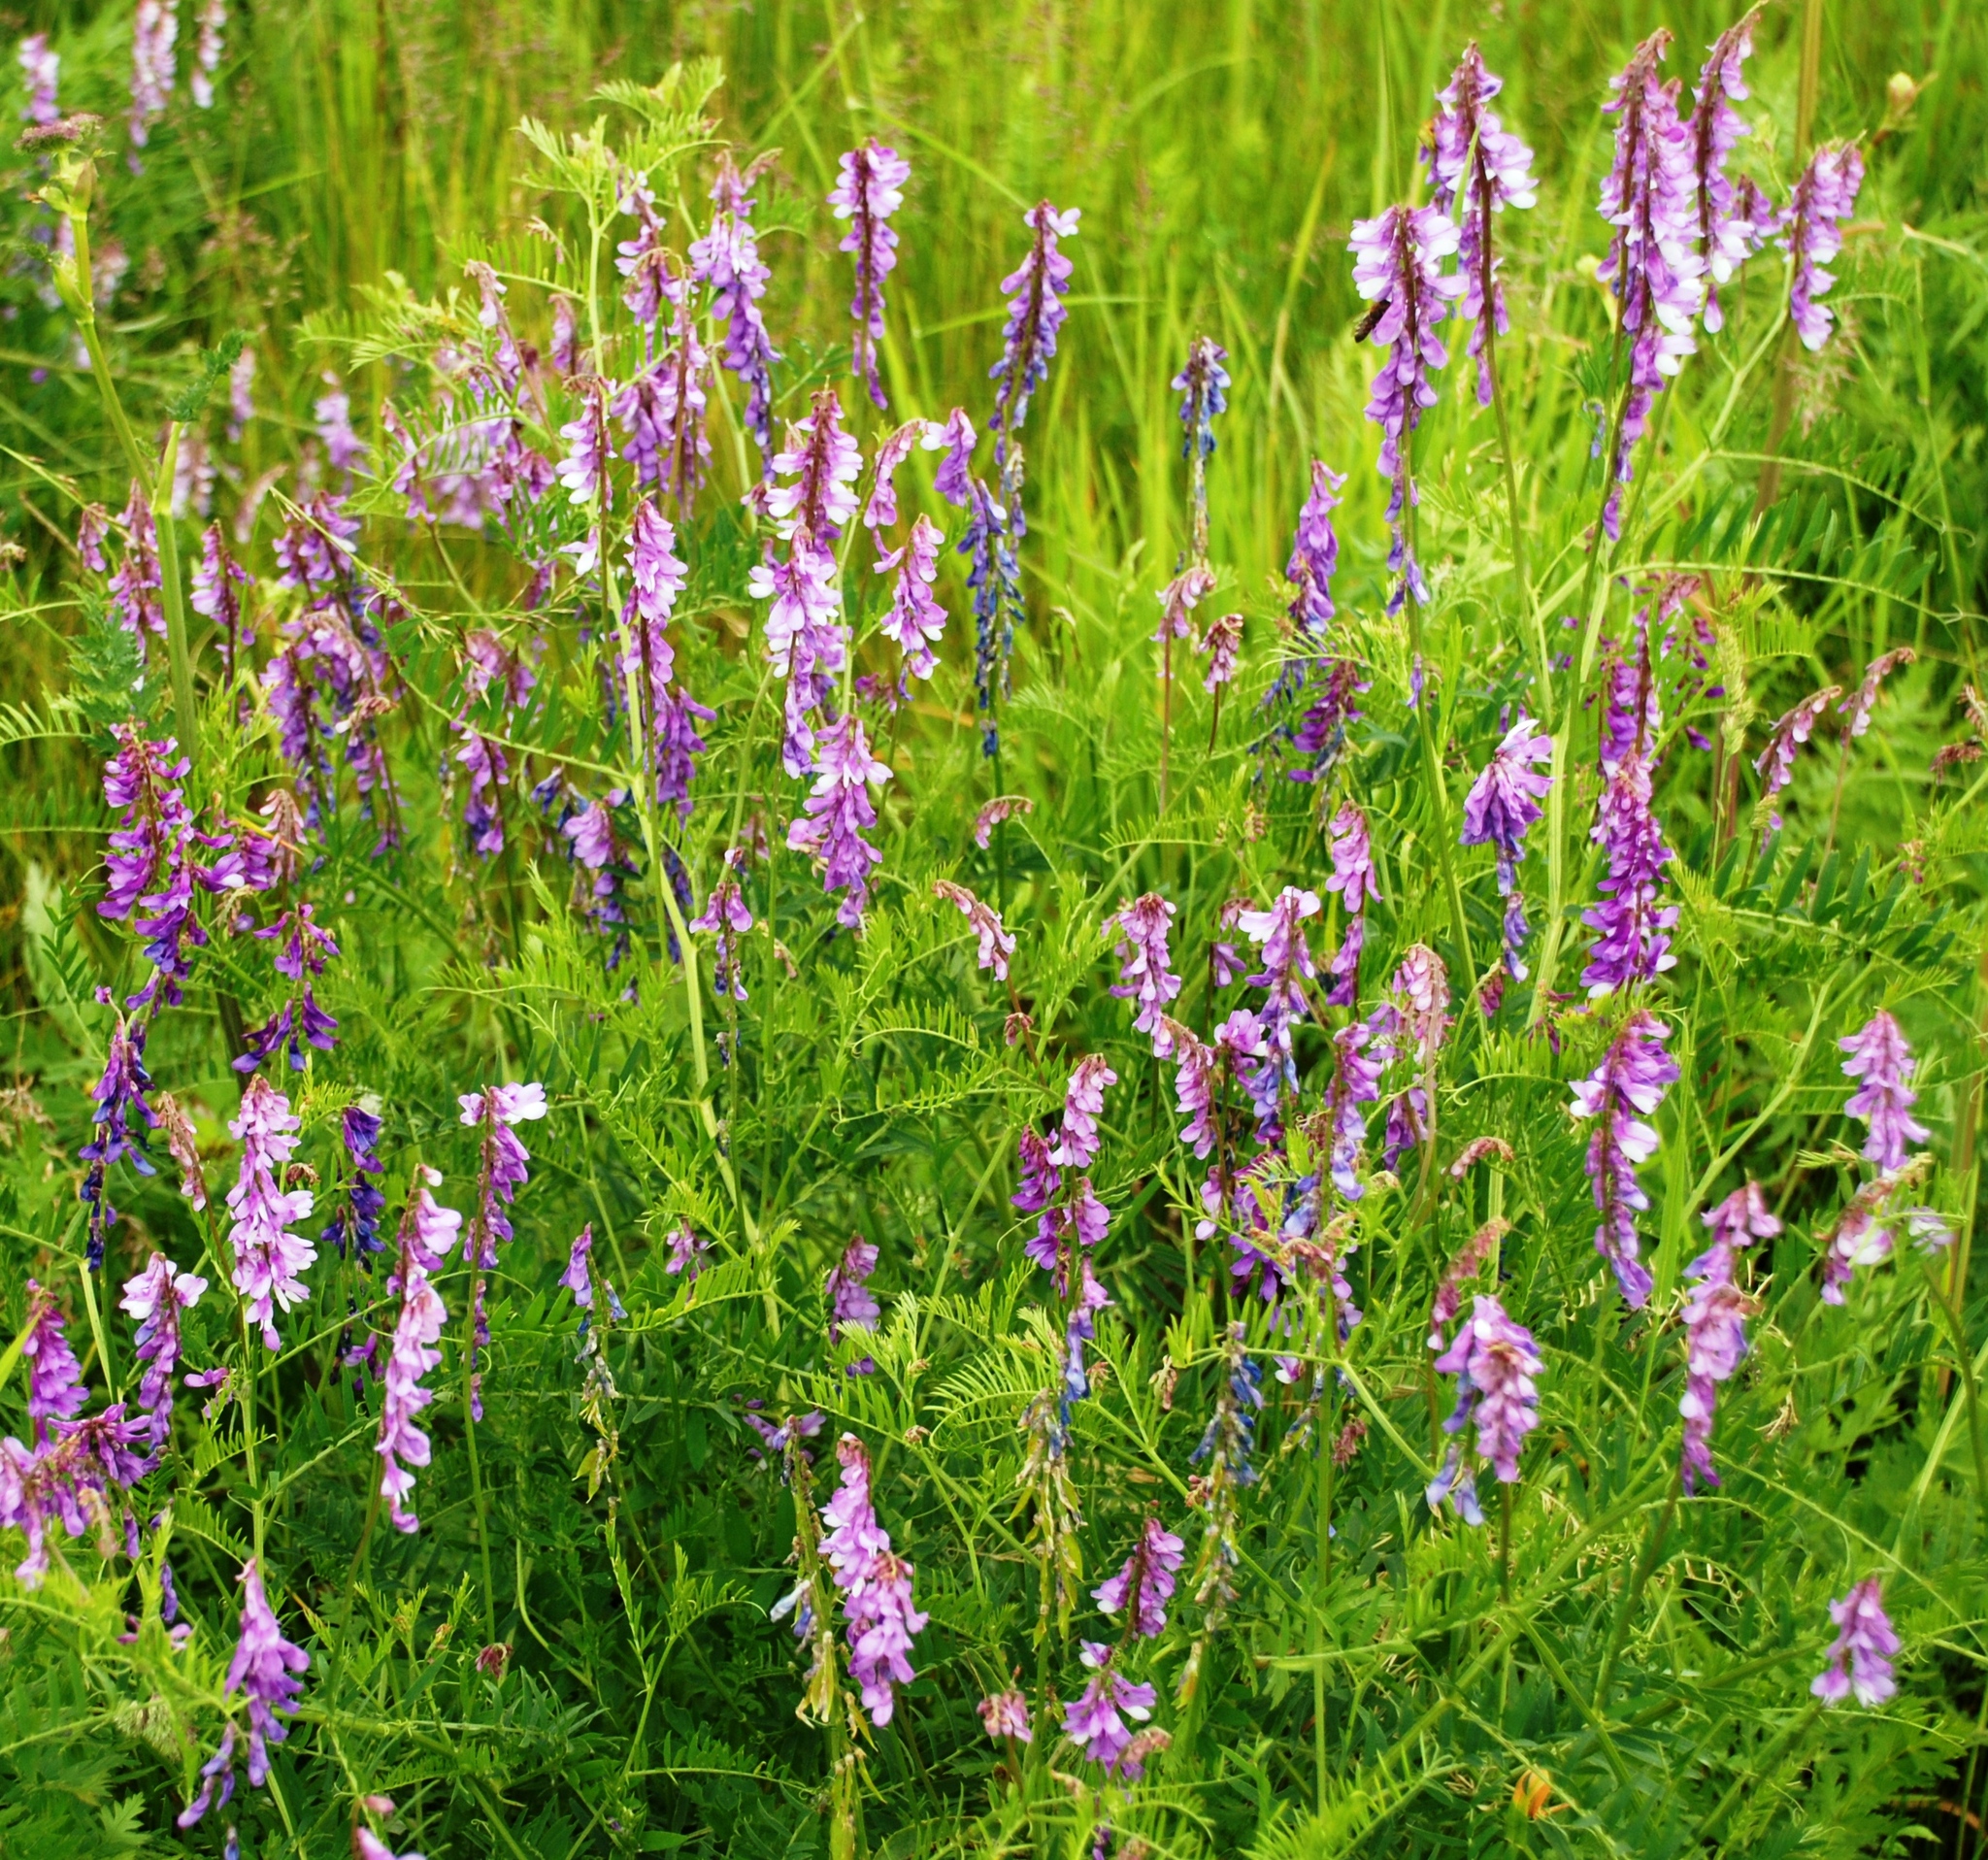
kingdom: Plantae
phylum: Tracheophyta
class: Magnoliopsida
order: Fabales
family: Fabaceae
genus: Vicia
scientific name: Vicia tenuifolia
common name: Fine-leaved vetch
